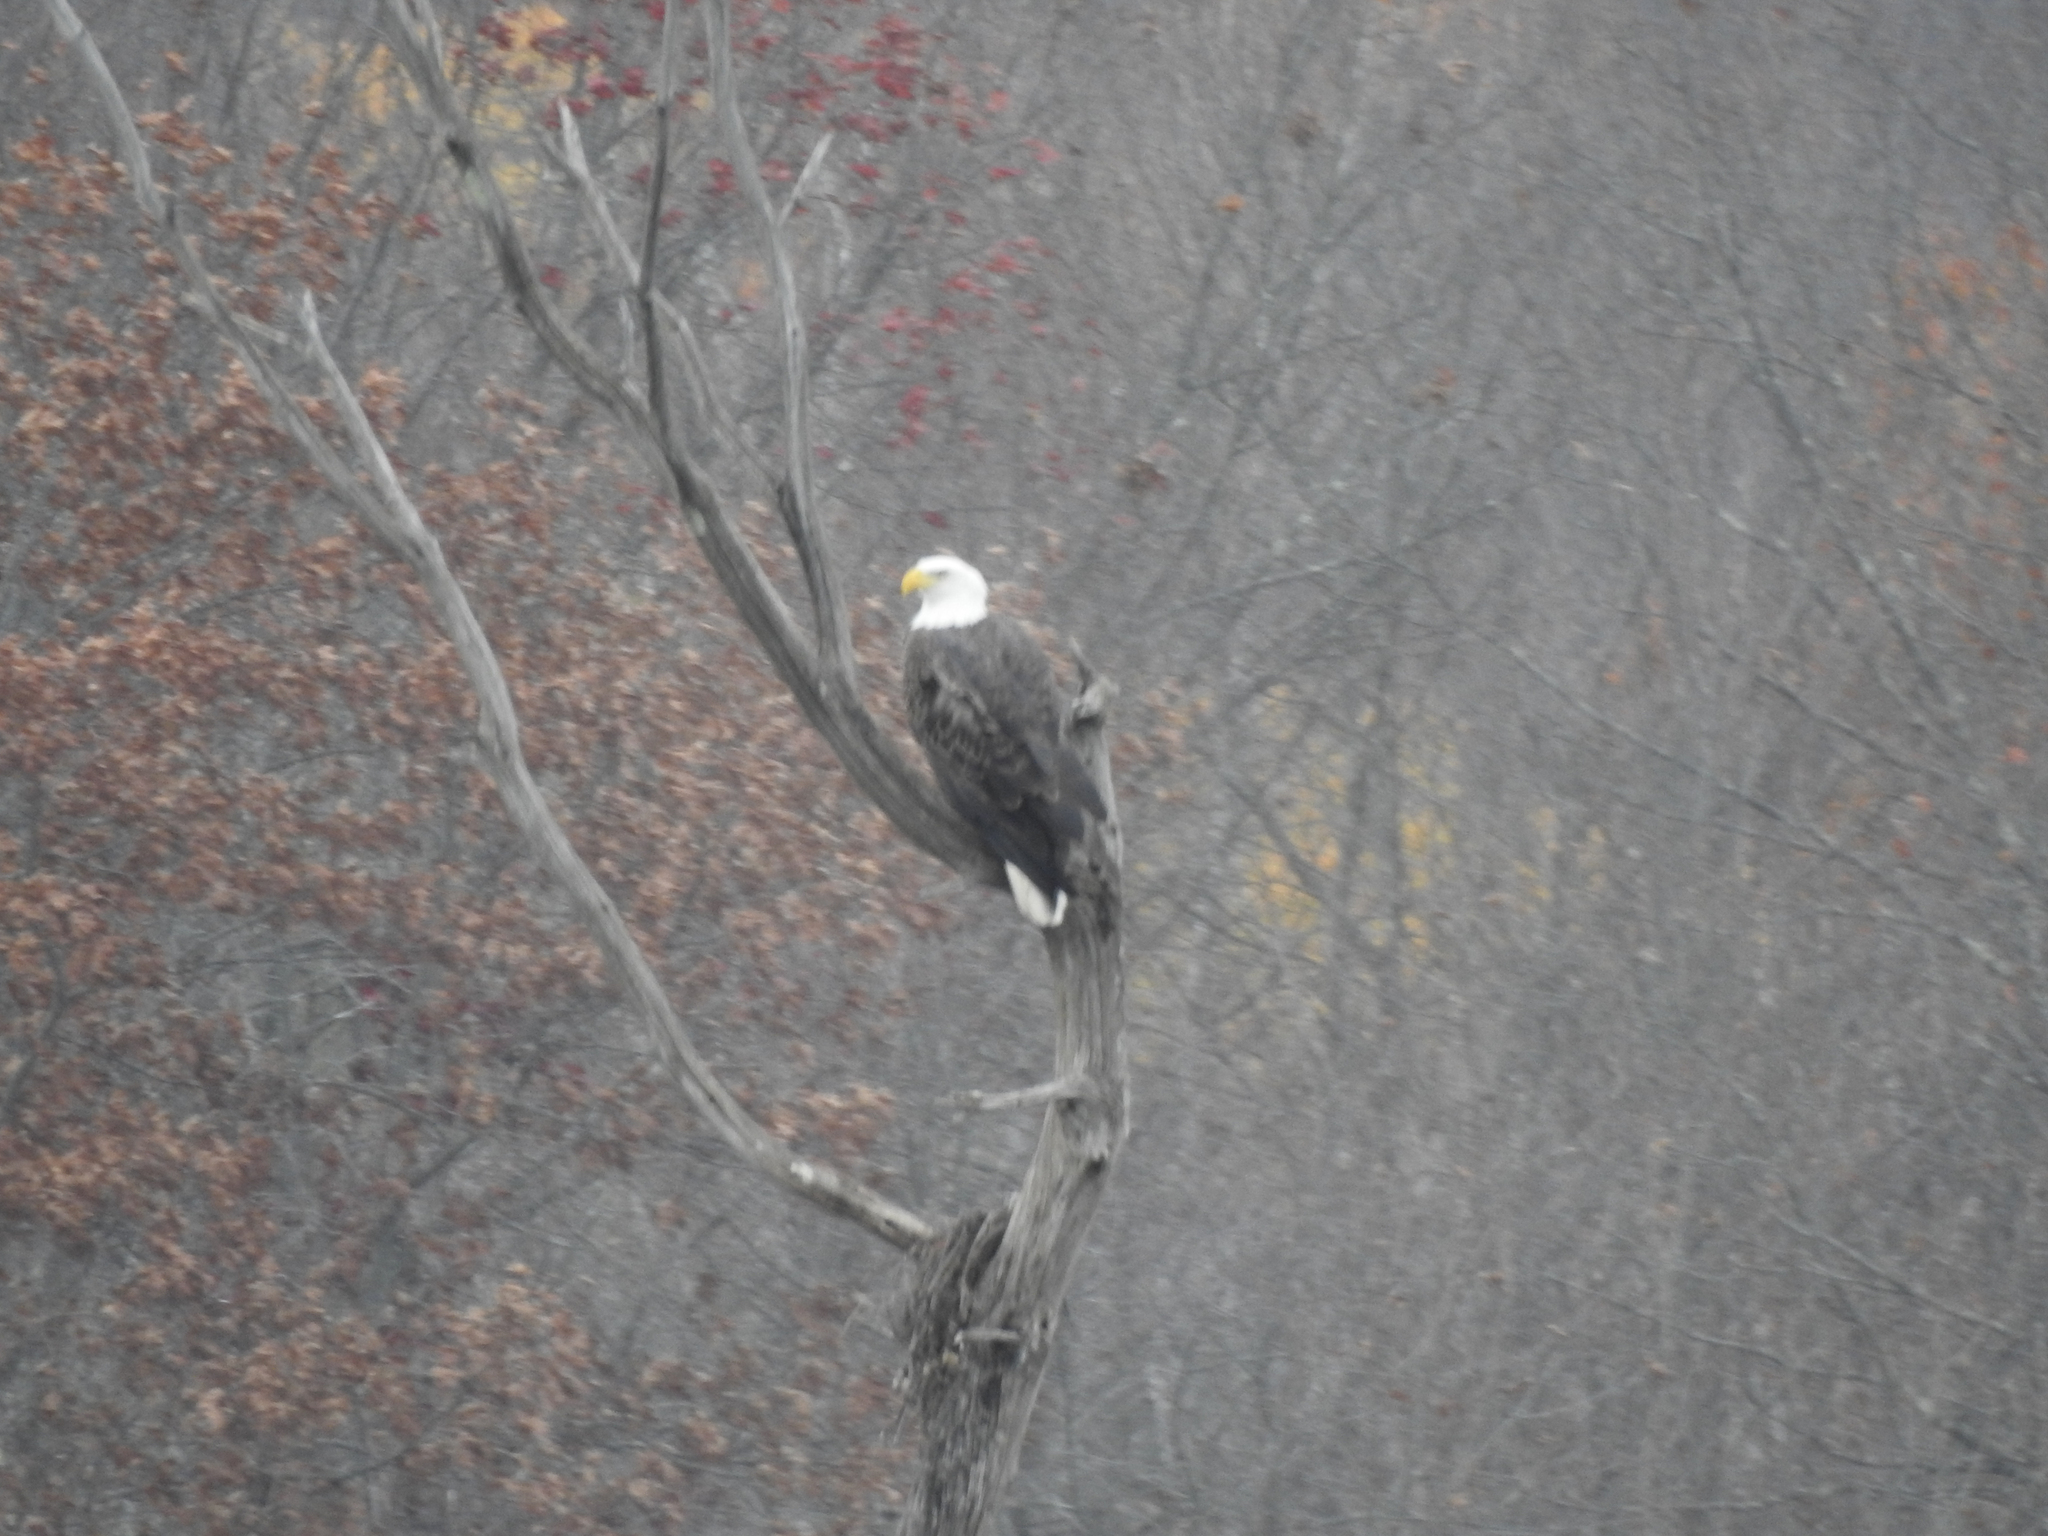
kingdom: Animalia
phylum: Chordata
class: Aves
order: Accipitriformes
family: Accipitridae
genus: Haliaeetus
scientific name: Haliaeetus leucocephalus
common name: Bald eagle
